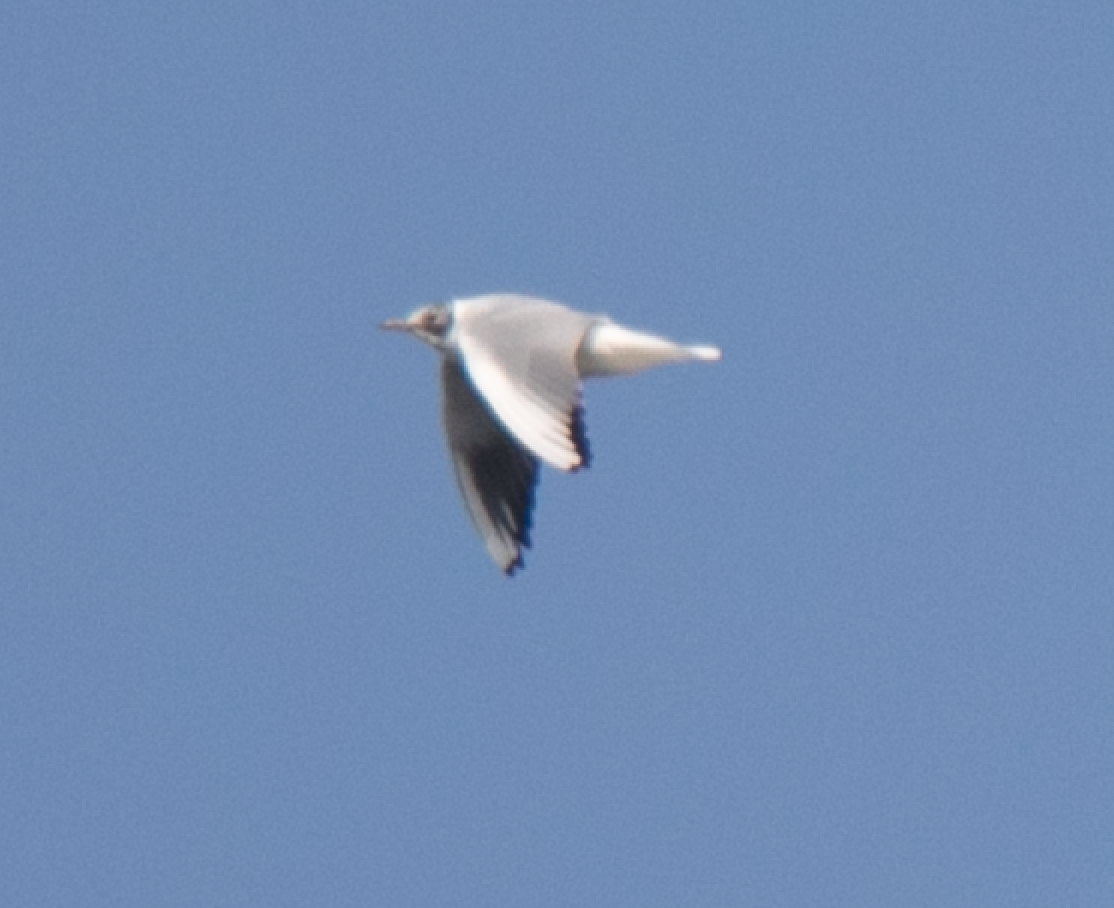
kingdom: Animalia
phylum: Chordata
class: Aves
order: Charadriiformes
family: Laridae
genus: Chroicocephalus
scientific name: Chroicocephalus ridibundus
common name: Black-headed gull
